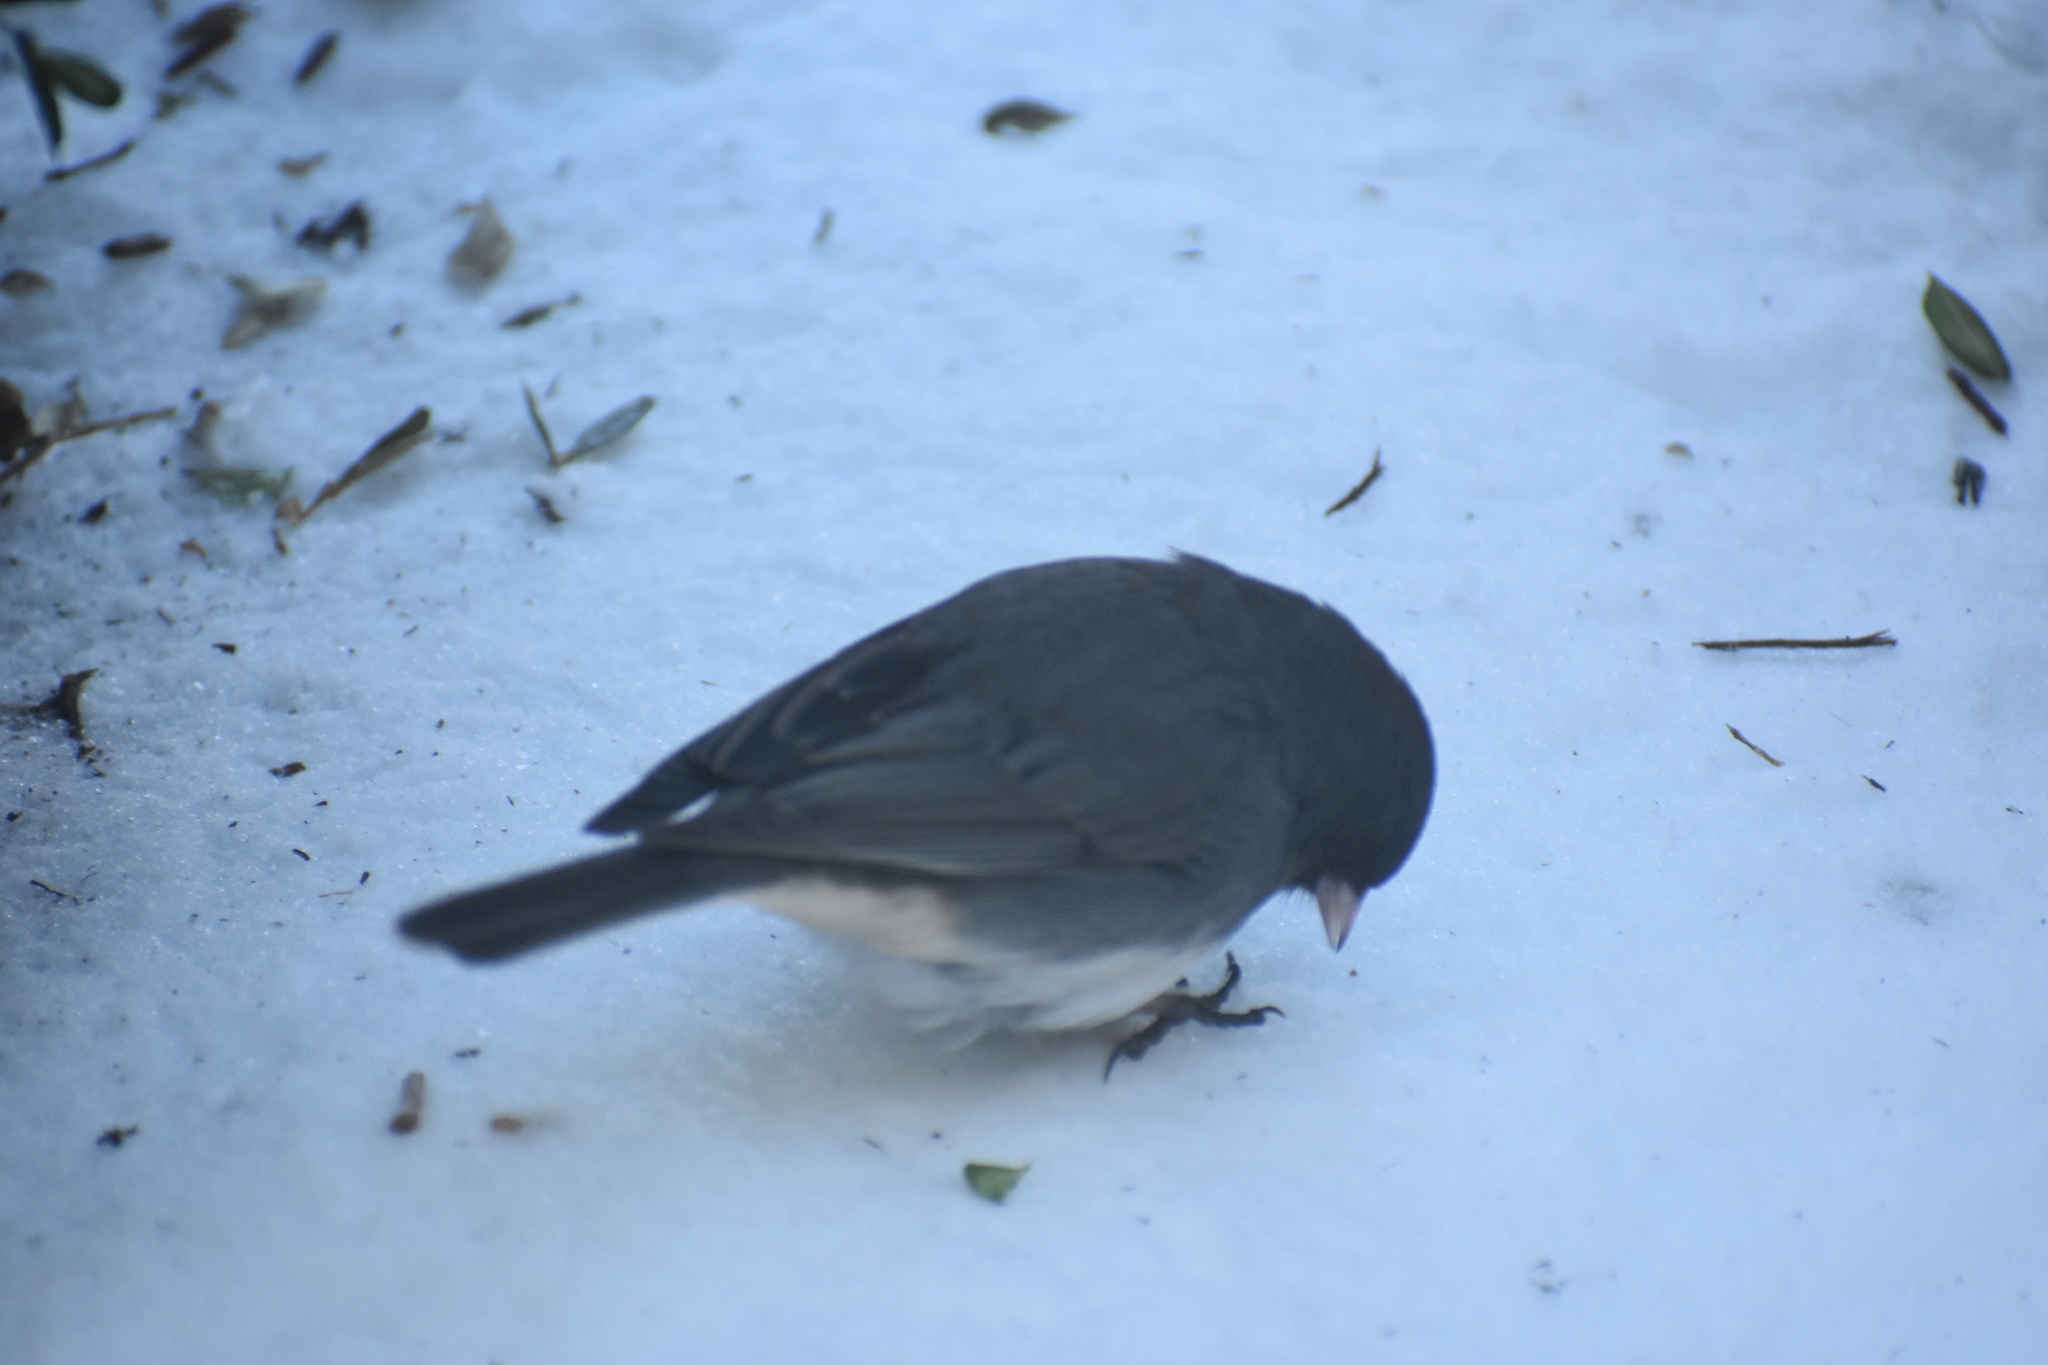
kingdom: Animalia
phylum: Chordata
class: Aves
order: Passeriformes
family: Passerellidae
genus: Junco
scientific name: Junco hyemalis
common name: Dark-eyed junco
